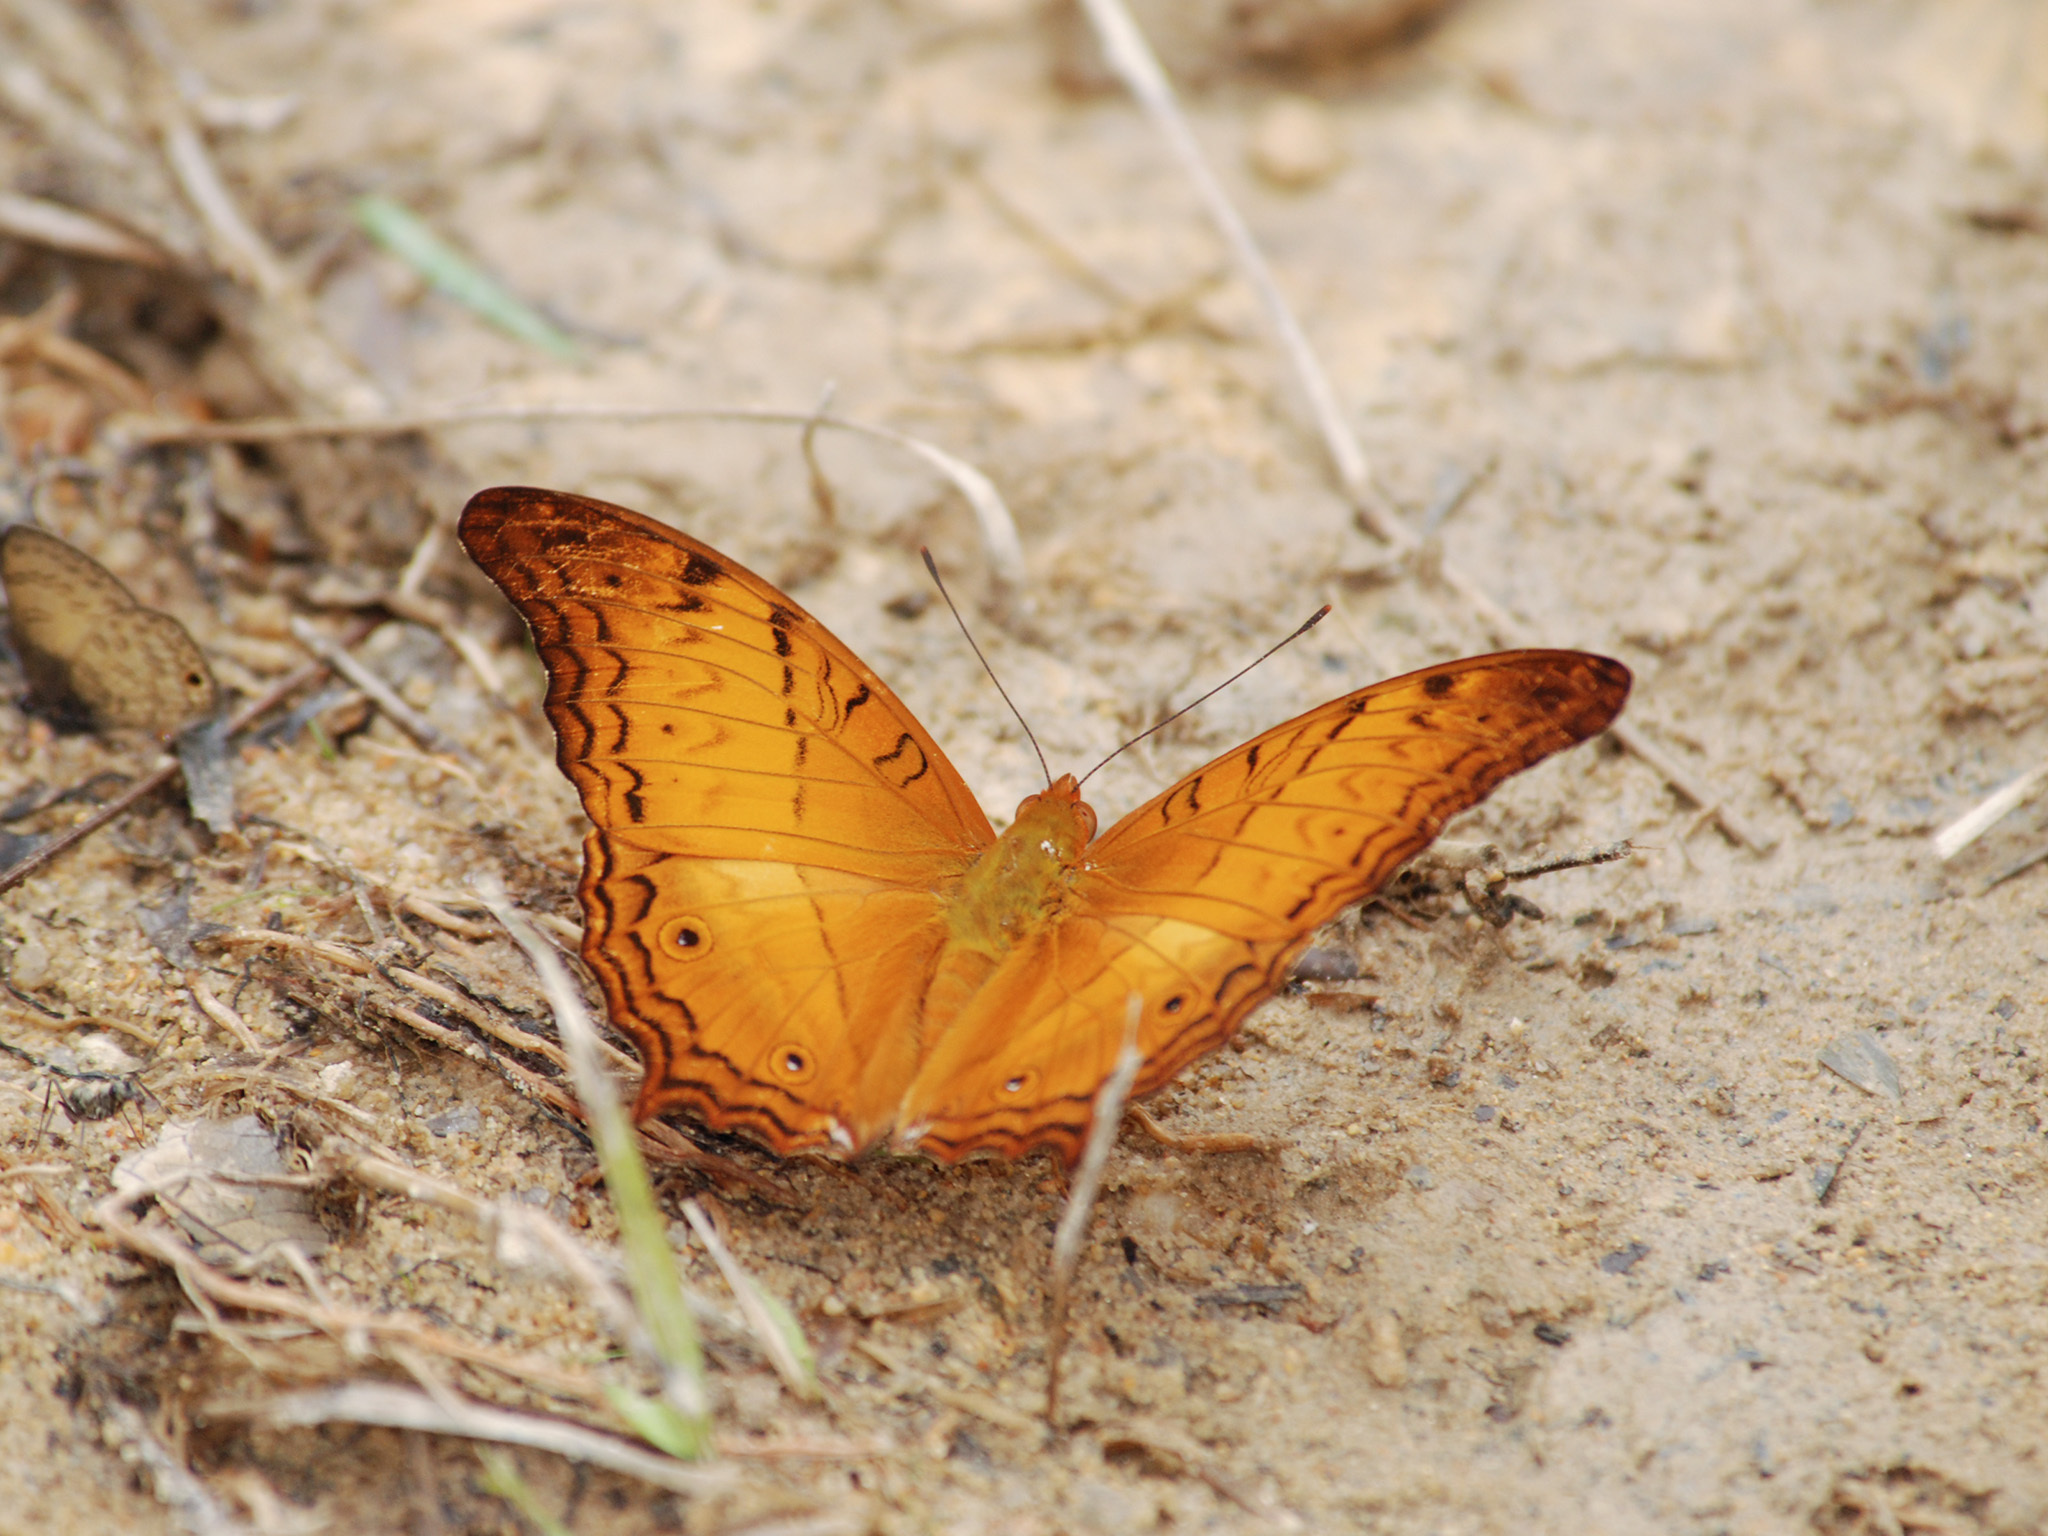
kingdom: Animalia
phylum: Arthropoda
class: Insecta
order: Lepidoptera
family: Nymphalidae
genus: Vindula
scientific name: Vindula deione
